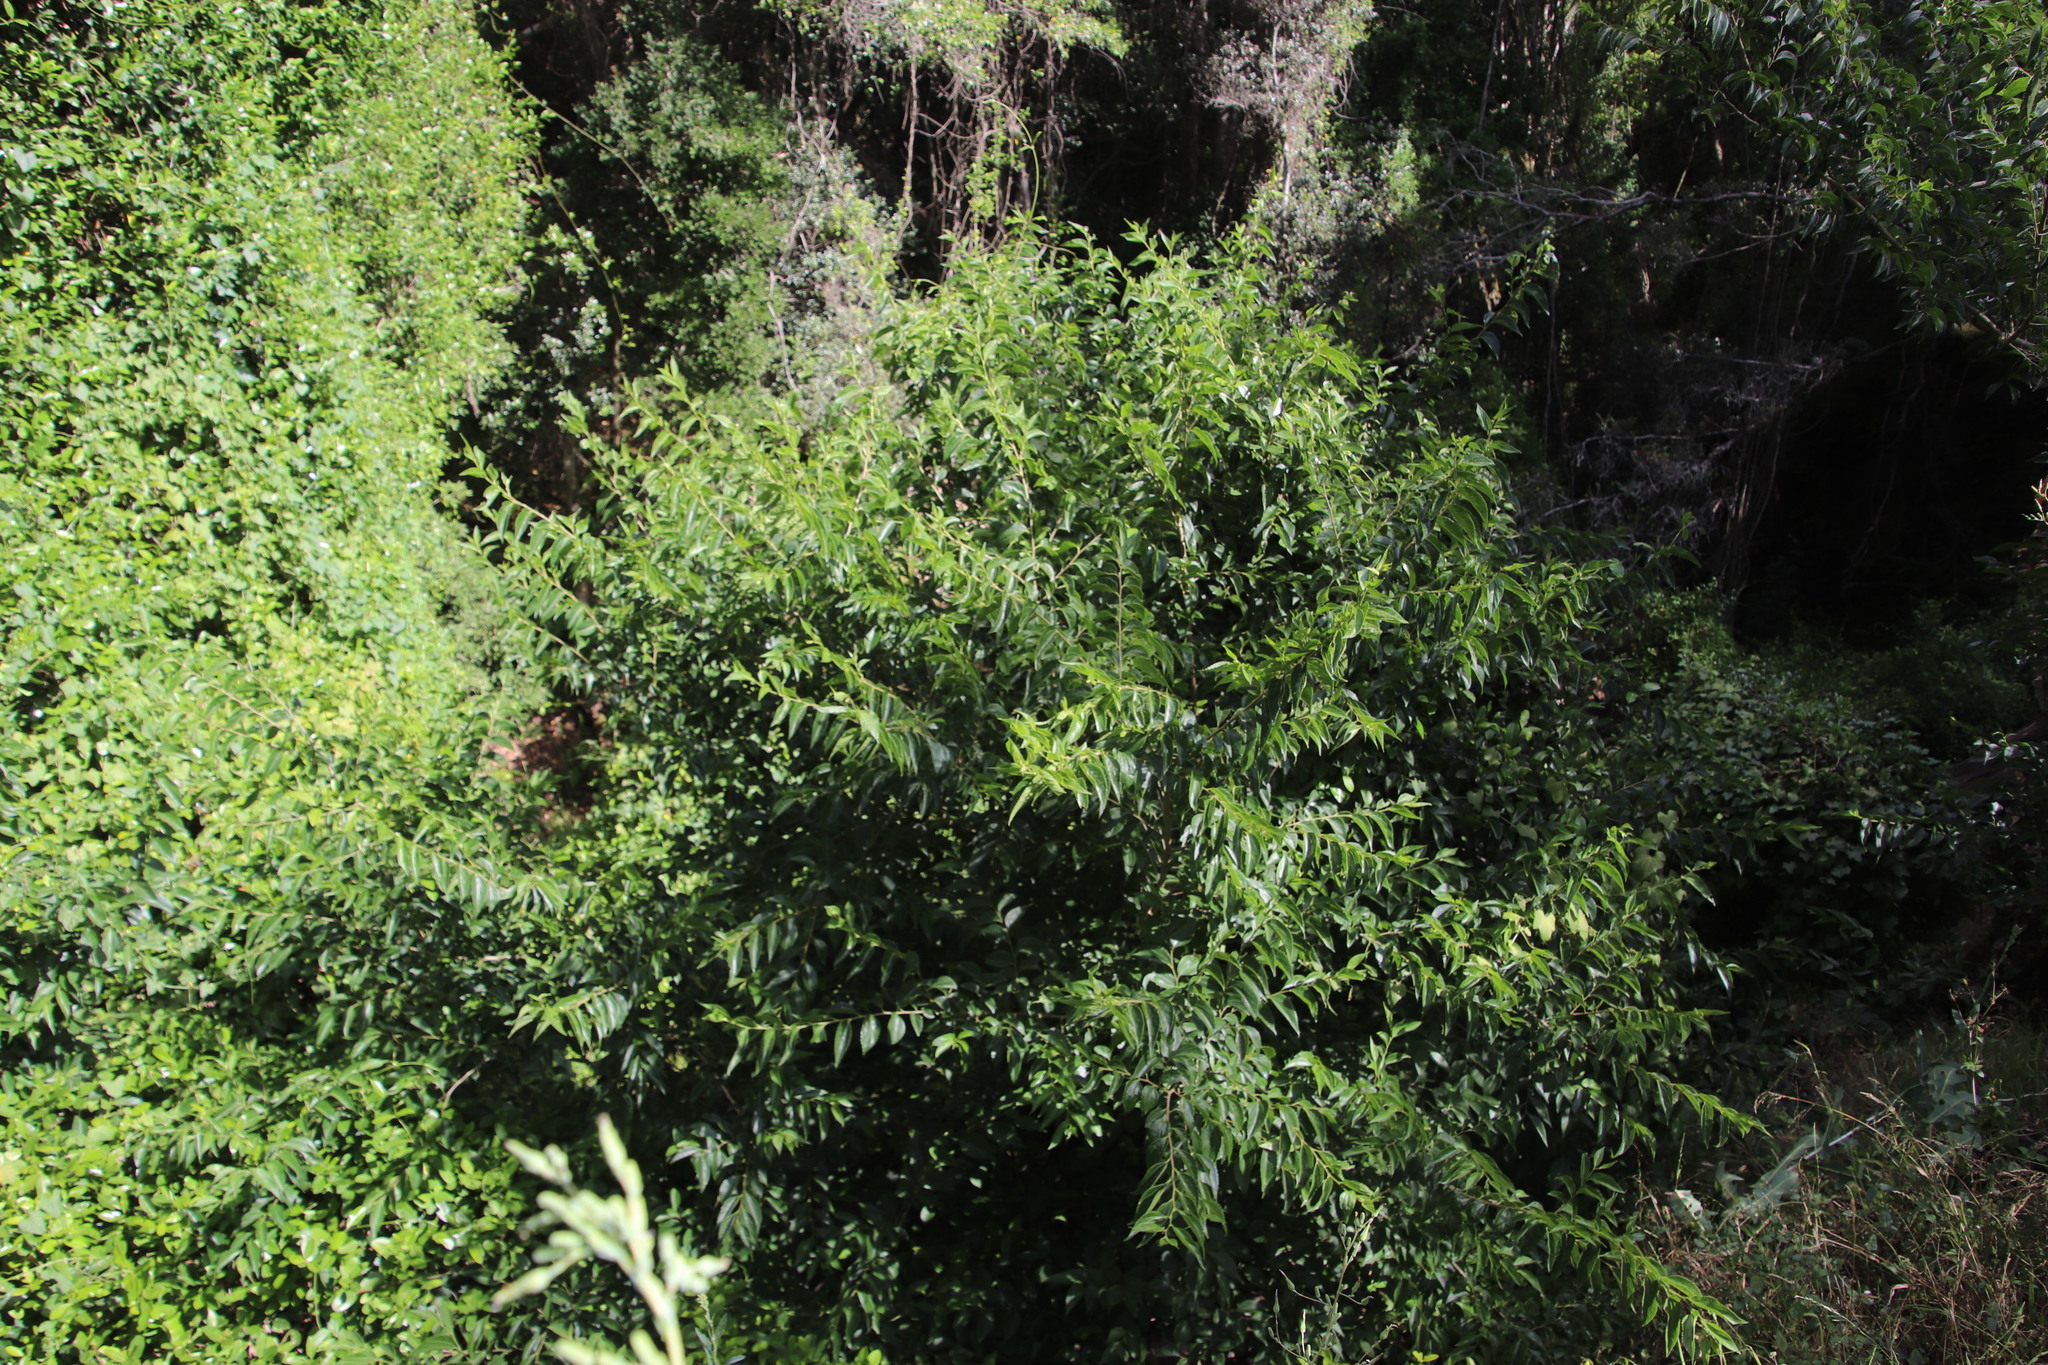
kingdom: Plantae
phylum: Tracheophyta
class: Magnoliopsida
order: Malvales
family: Malvaceae
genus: Grewia
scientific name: Grewia occidentalis
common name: Crossberry
